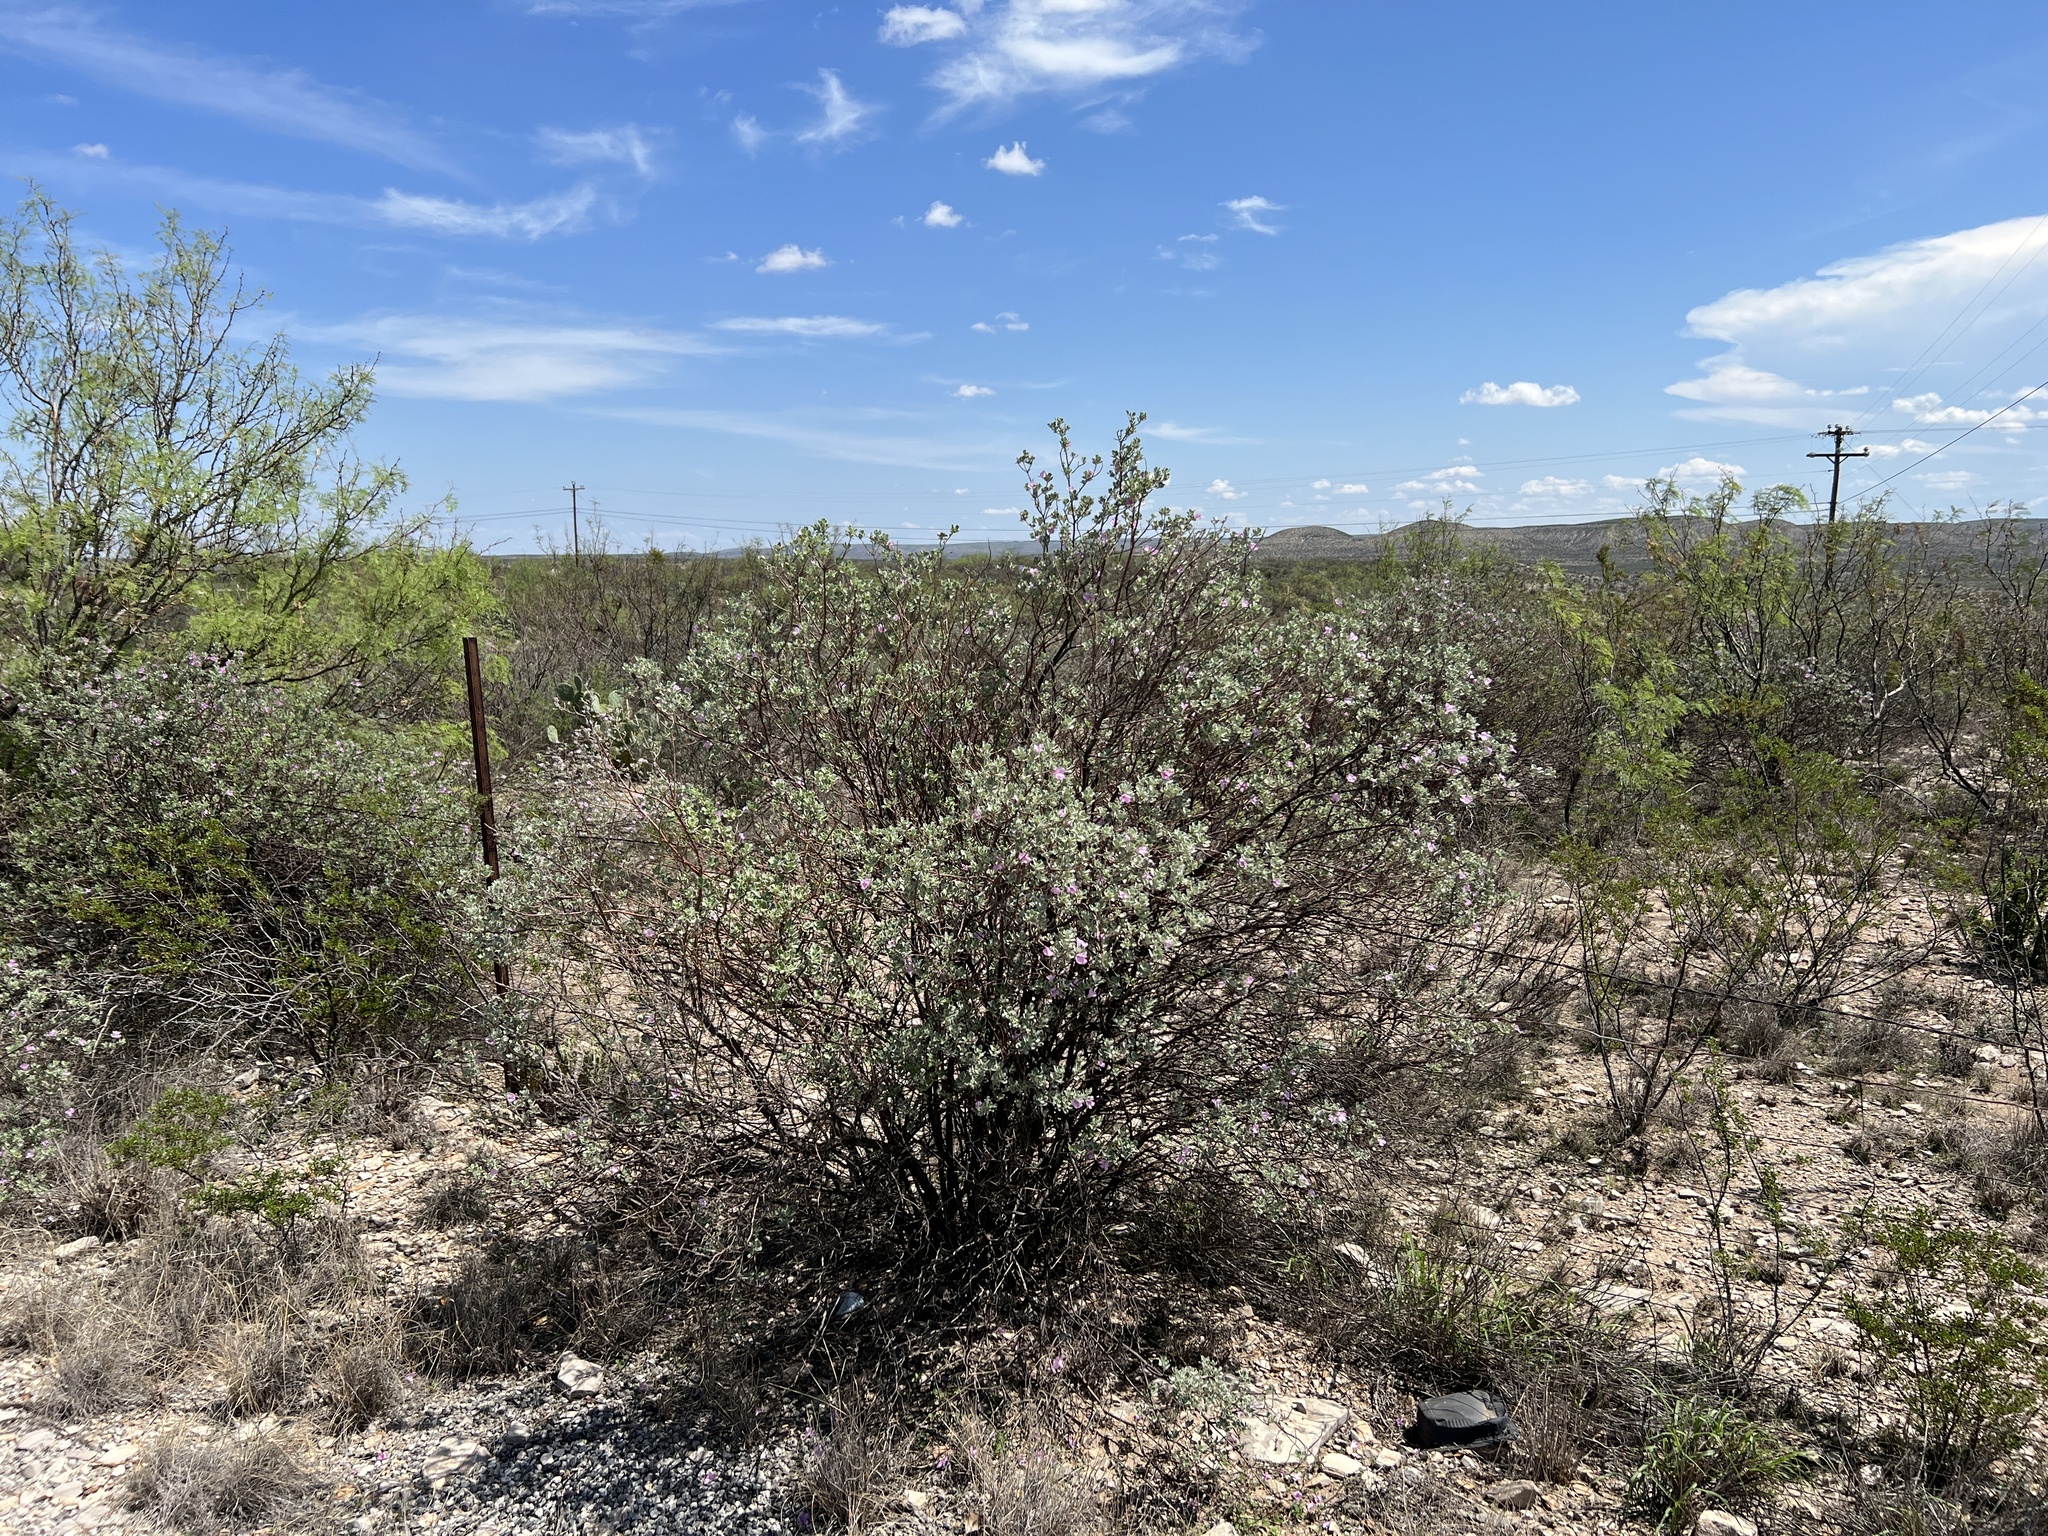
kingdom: Plantae
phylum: Tracheophyta
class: Magnoliopsida
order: Lamiales
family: Scrophulariaceae
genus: Leucophyllum
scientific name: Leucophyllum frutescens
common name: Texas silverleaf
